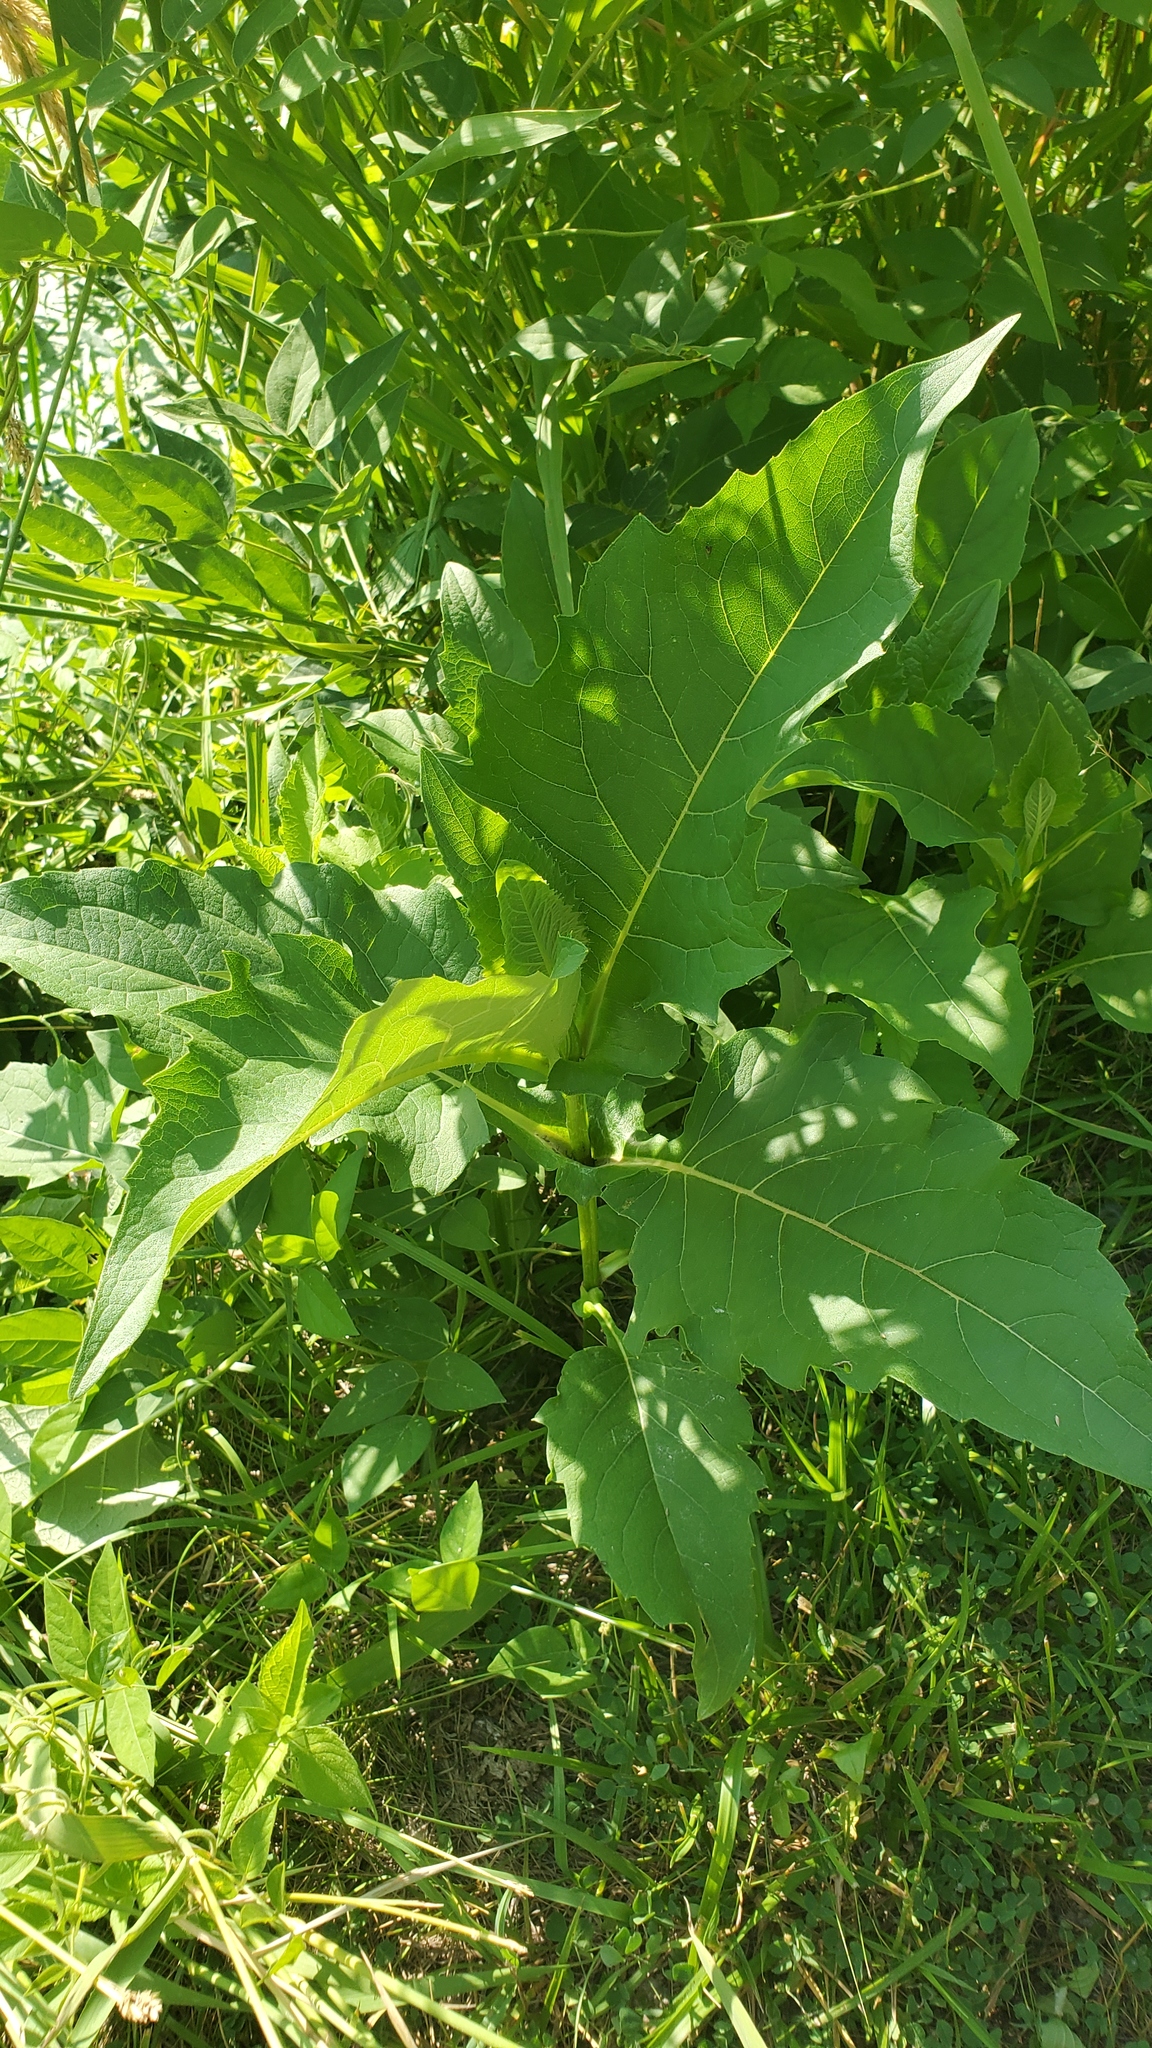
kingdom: Plantae
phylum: Tracheophyta
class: Magnoliopsida
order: Asterales
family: Asteraceae
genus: Silphium
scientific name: Silphium perfoliatum
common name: Cup-plant
